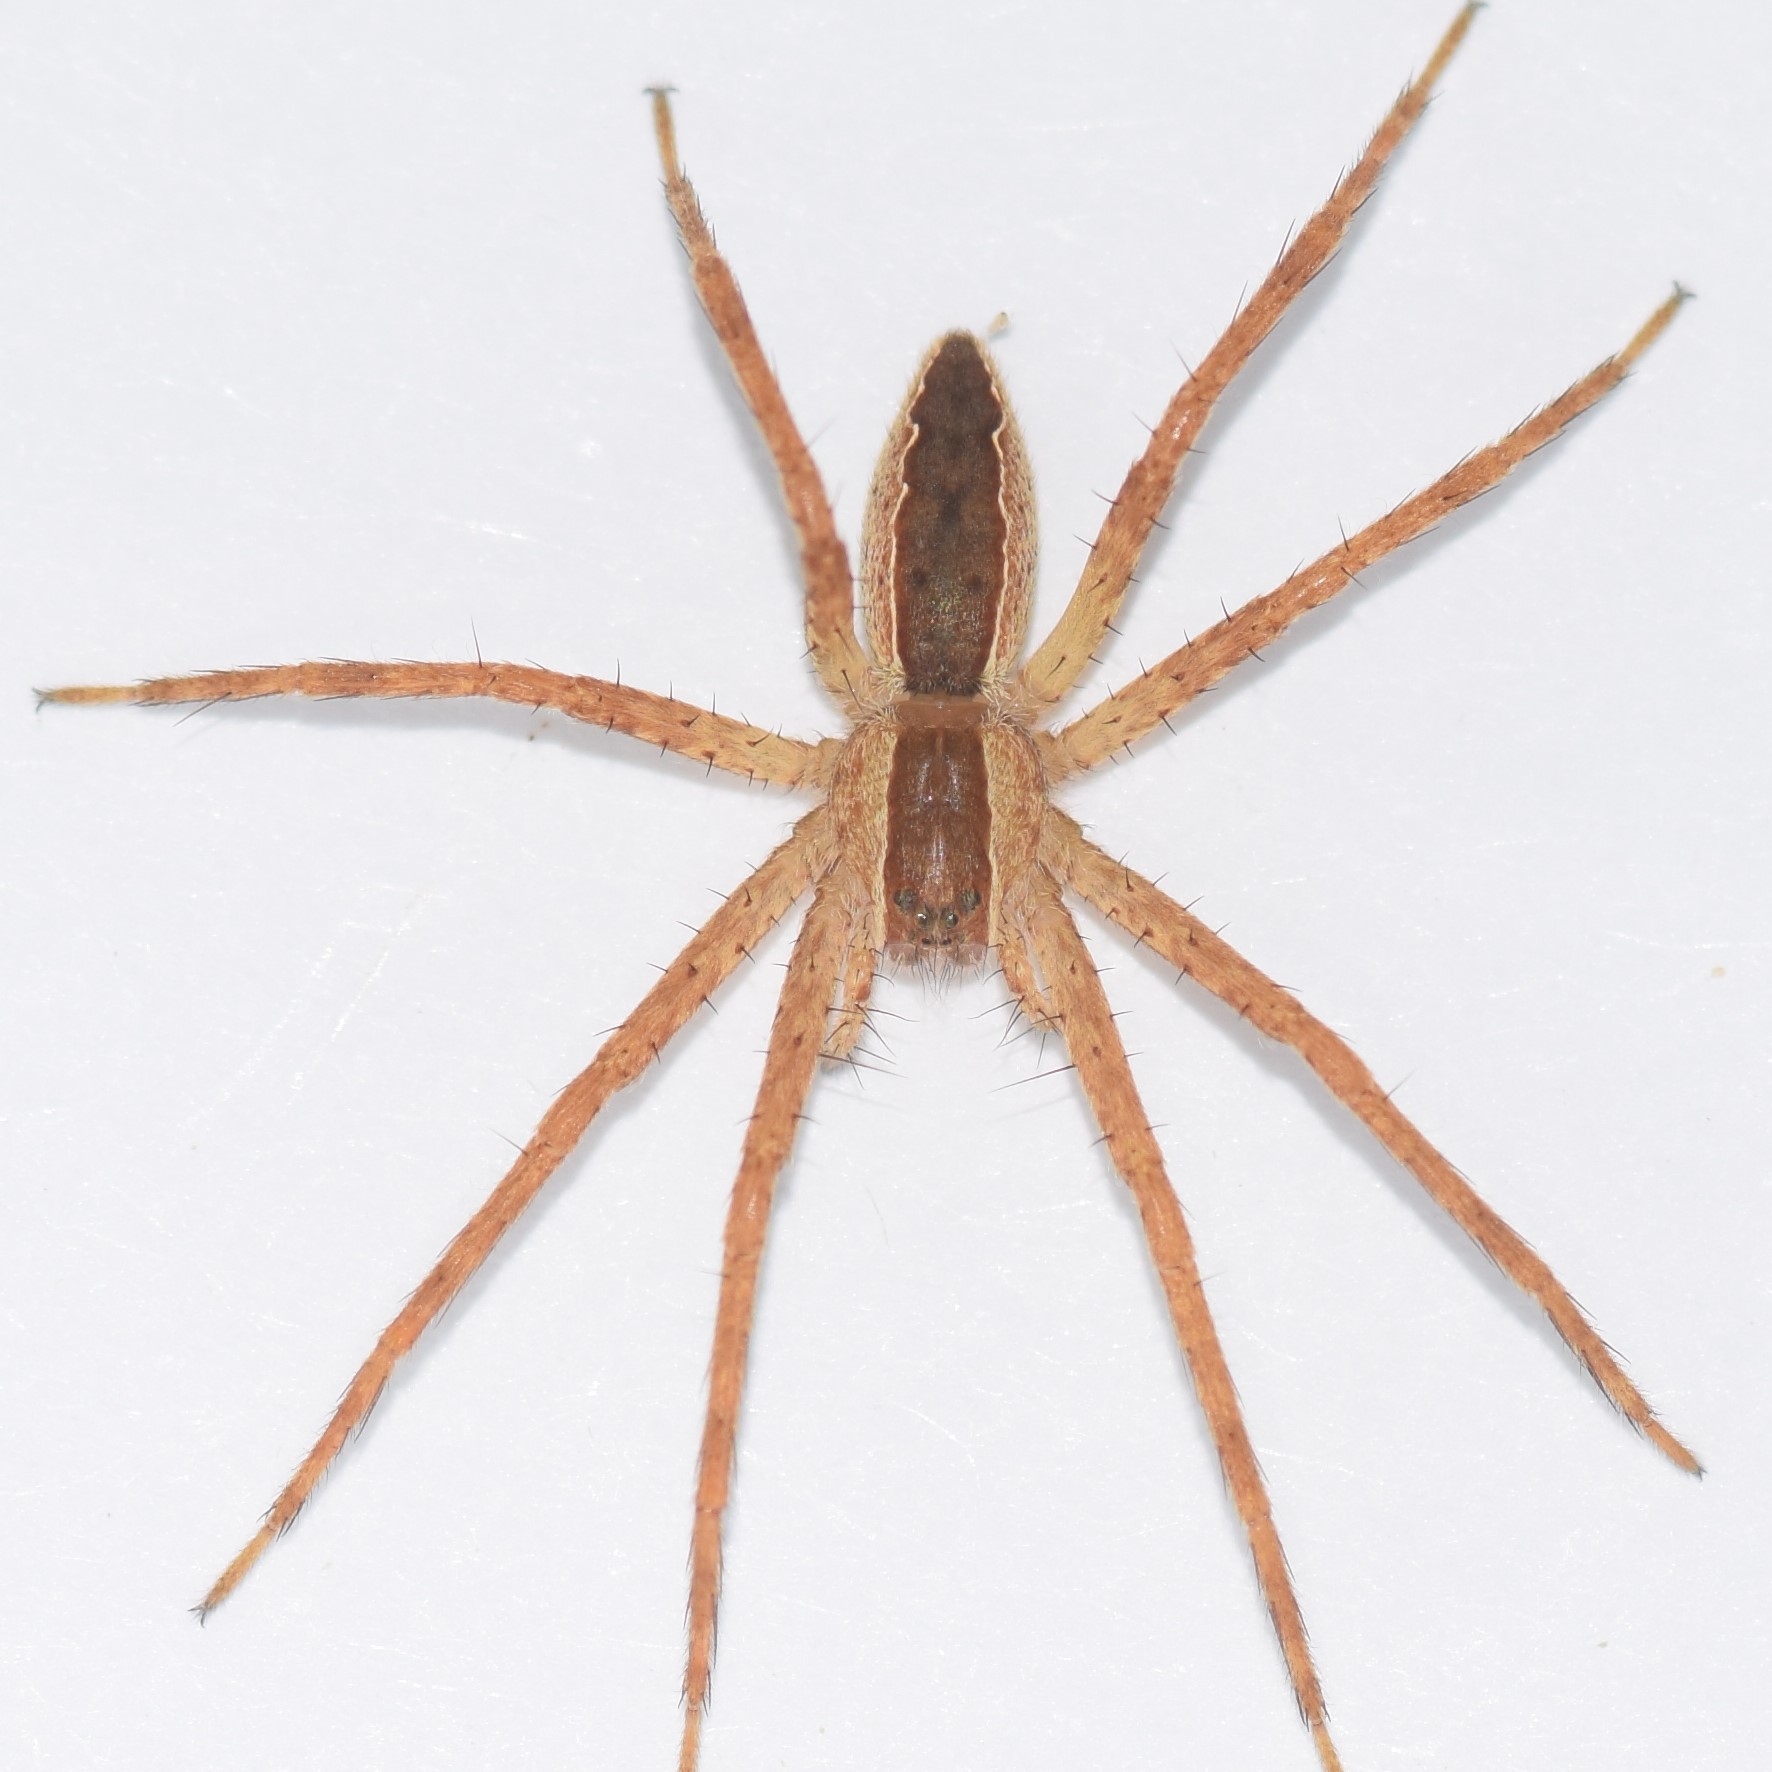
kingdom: Animalia
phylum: Arthropoda
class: Arachnida
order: Araneae
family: Pisauridae
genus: Pisaurina
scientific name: Pisaurina mira
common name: American nursery web spider
